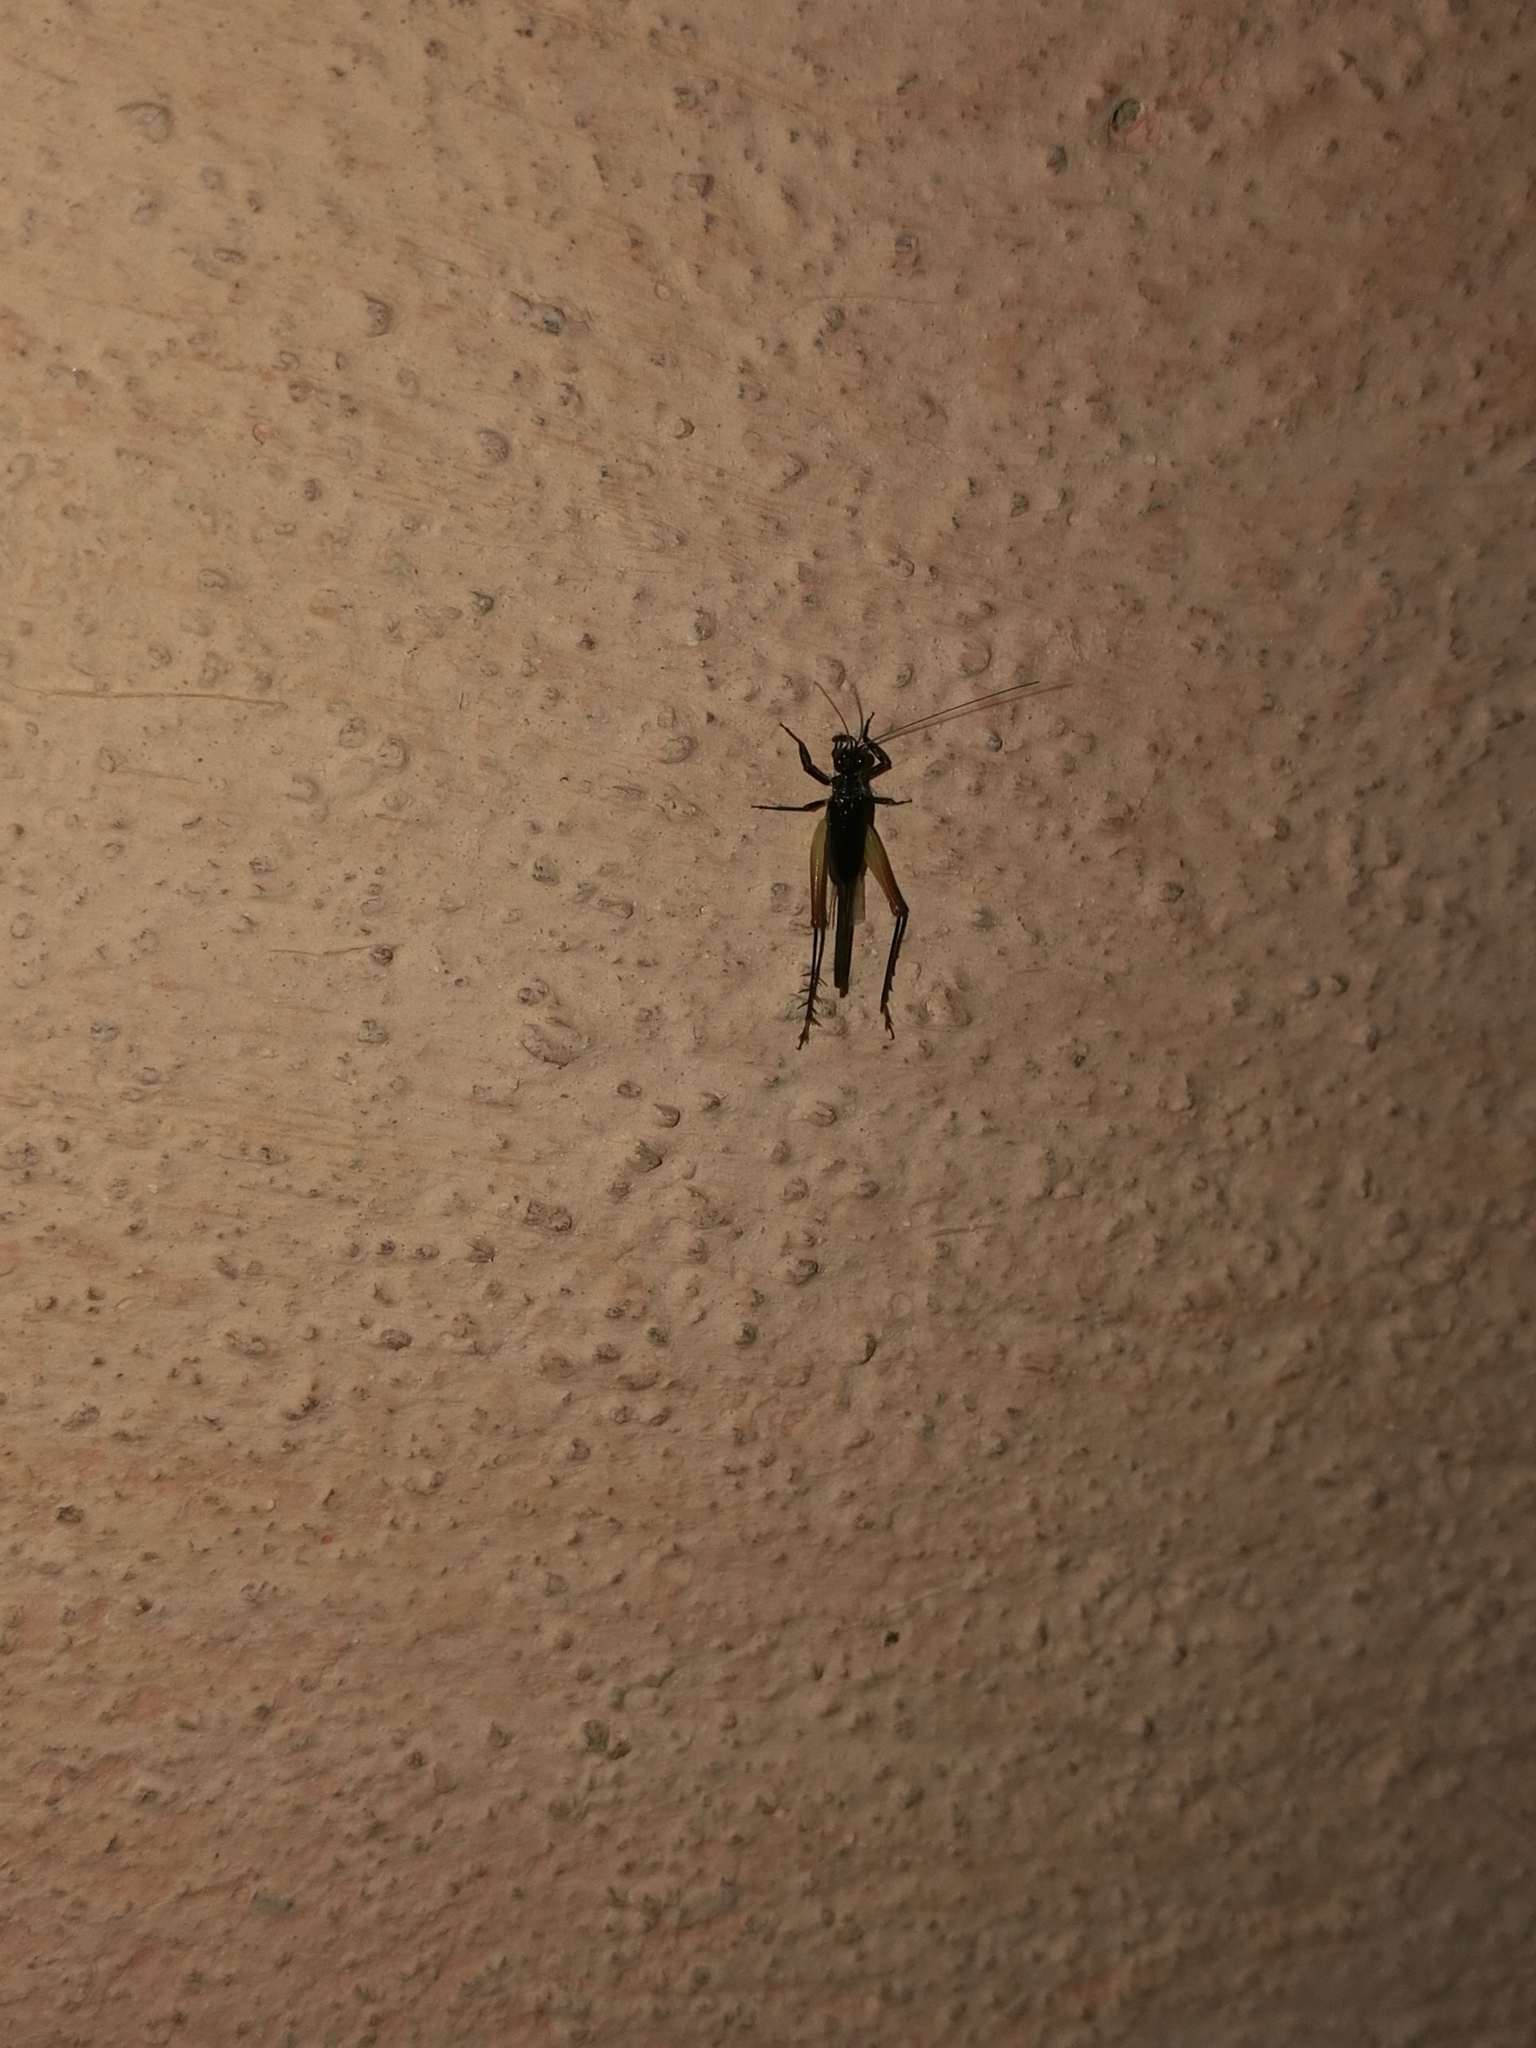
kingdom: Animalia
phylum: Arthropoda
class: Insecta
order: Orthoptera
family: Trigonidiidae
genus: Trigonidium
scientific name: Trigonidium cicindeloides
